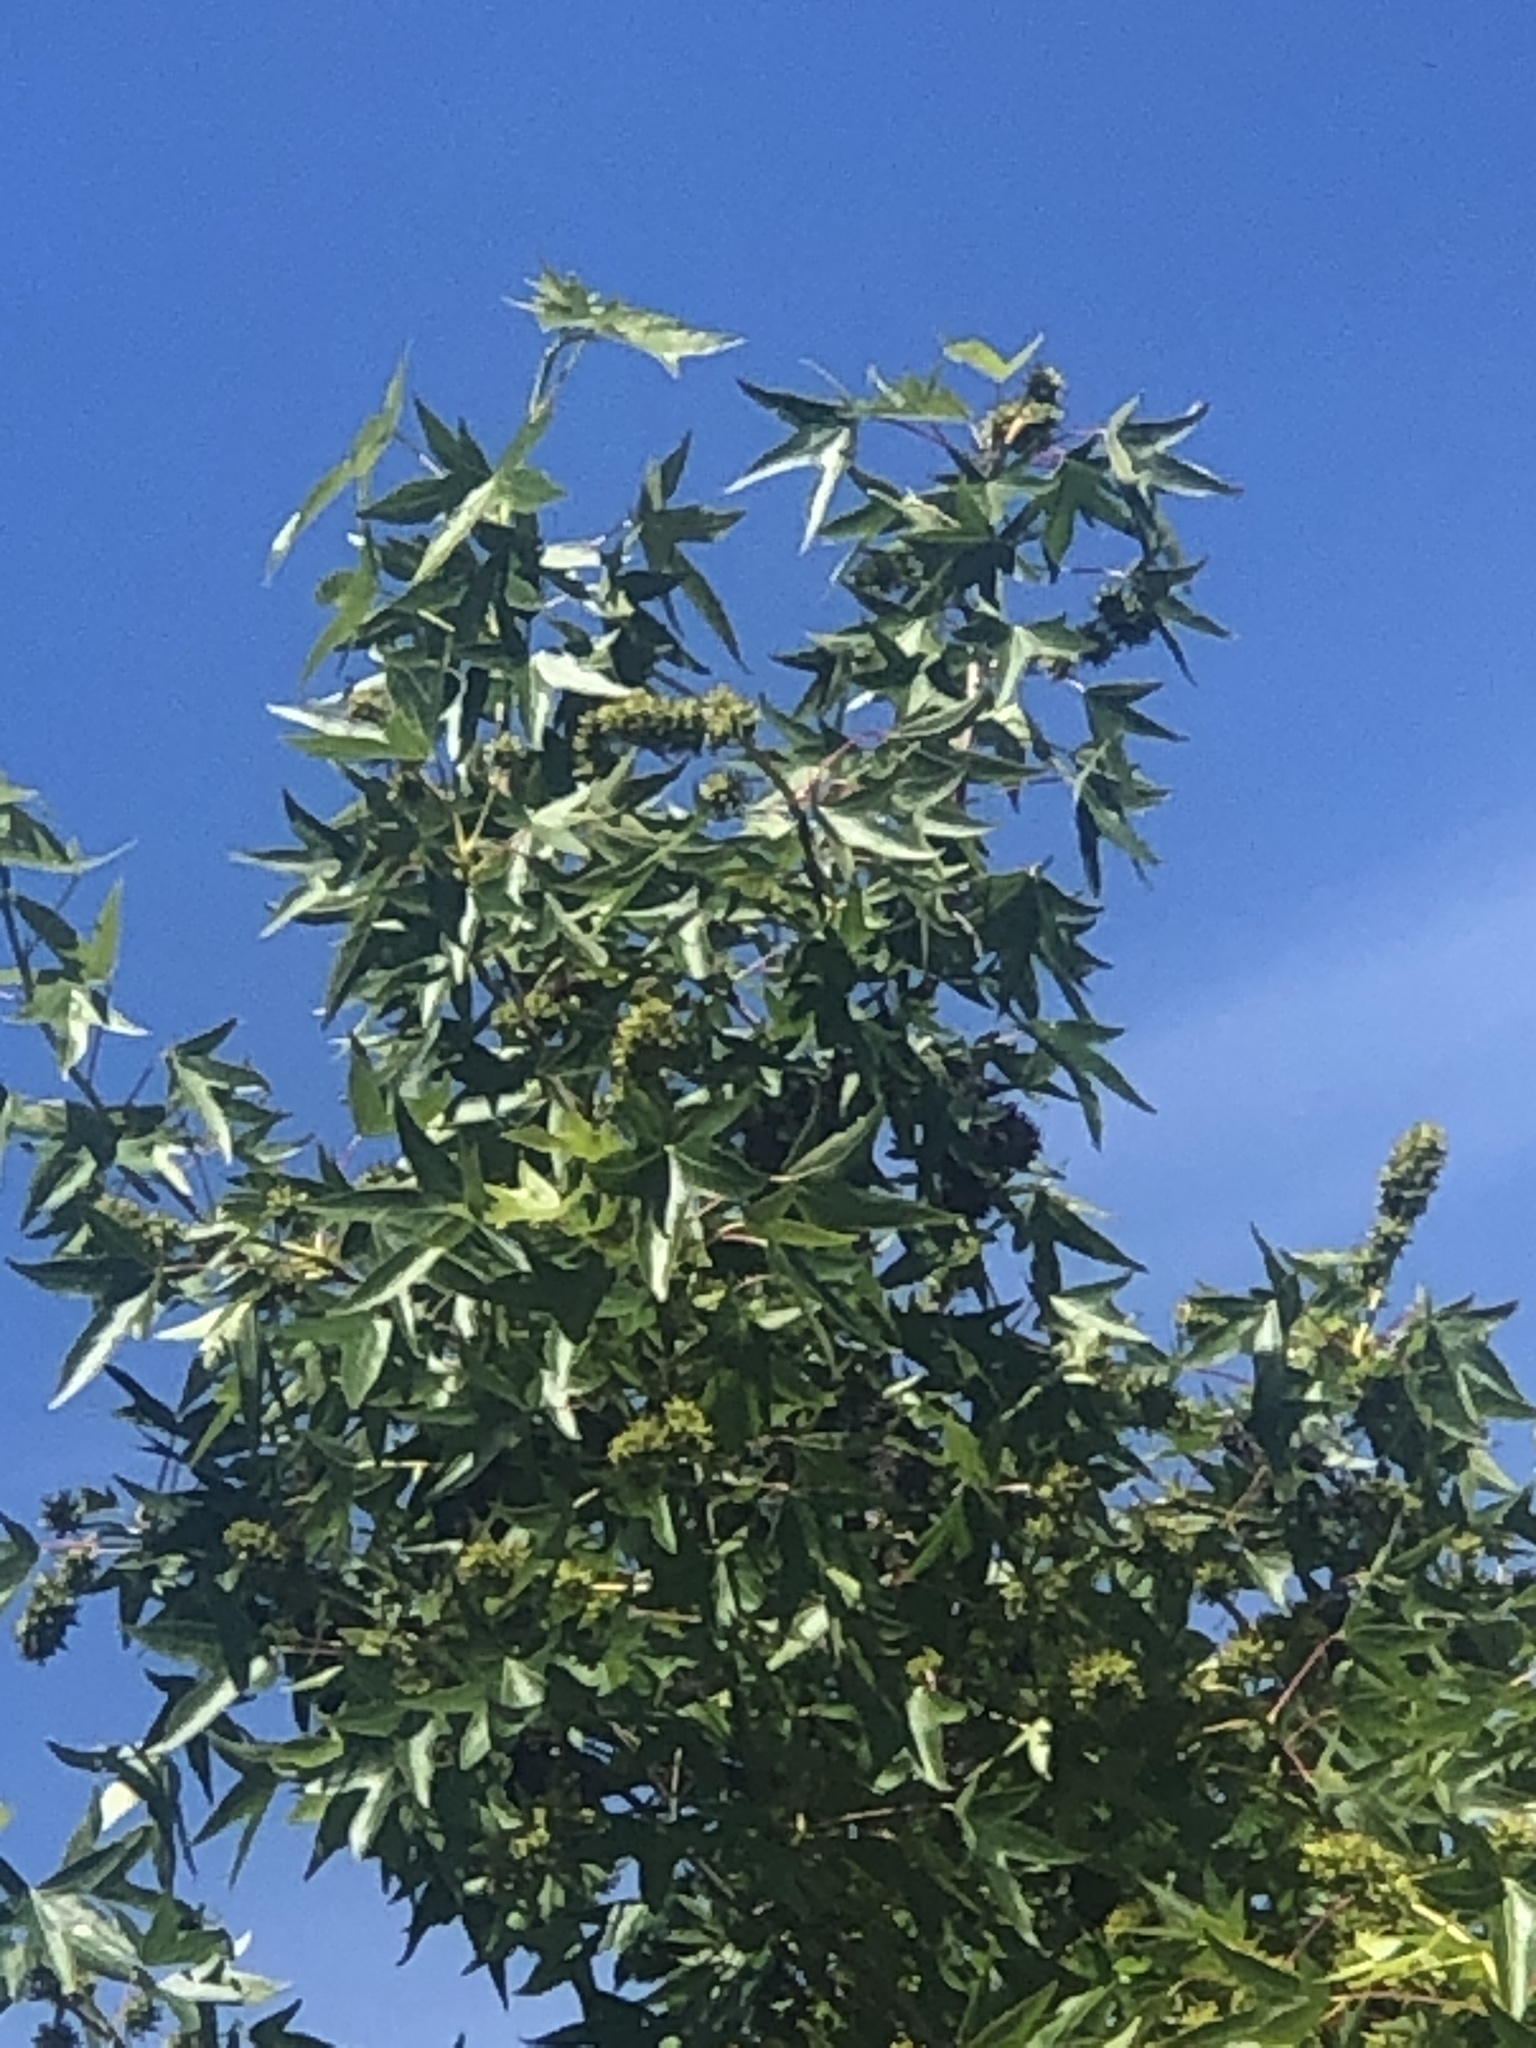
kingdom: Plantae
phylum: Tracheophyta
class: Magnoliopsida
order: Saxifragales
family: Altingiaceae
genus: Liquidambar
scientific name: Liquidambar styraciflua
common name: Sweet gum
